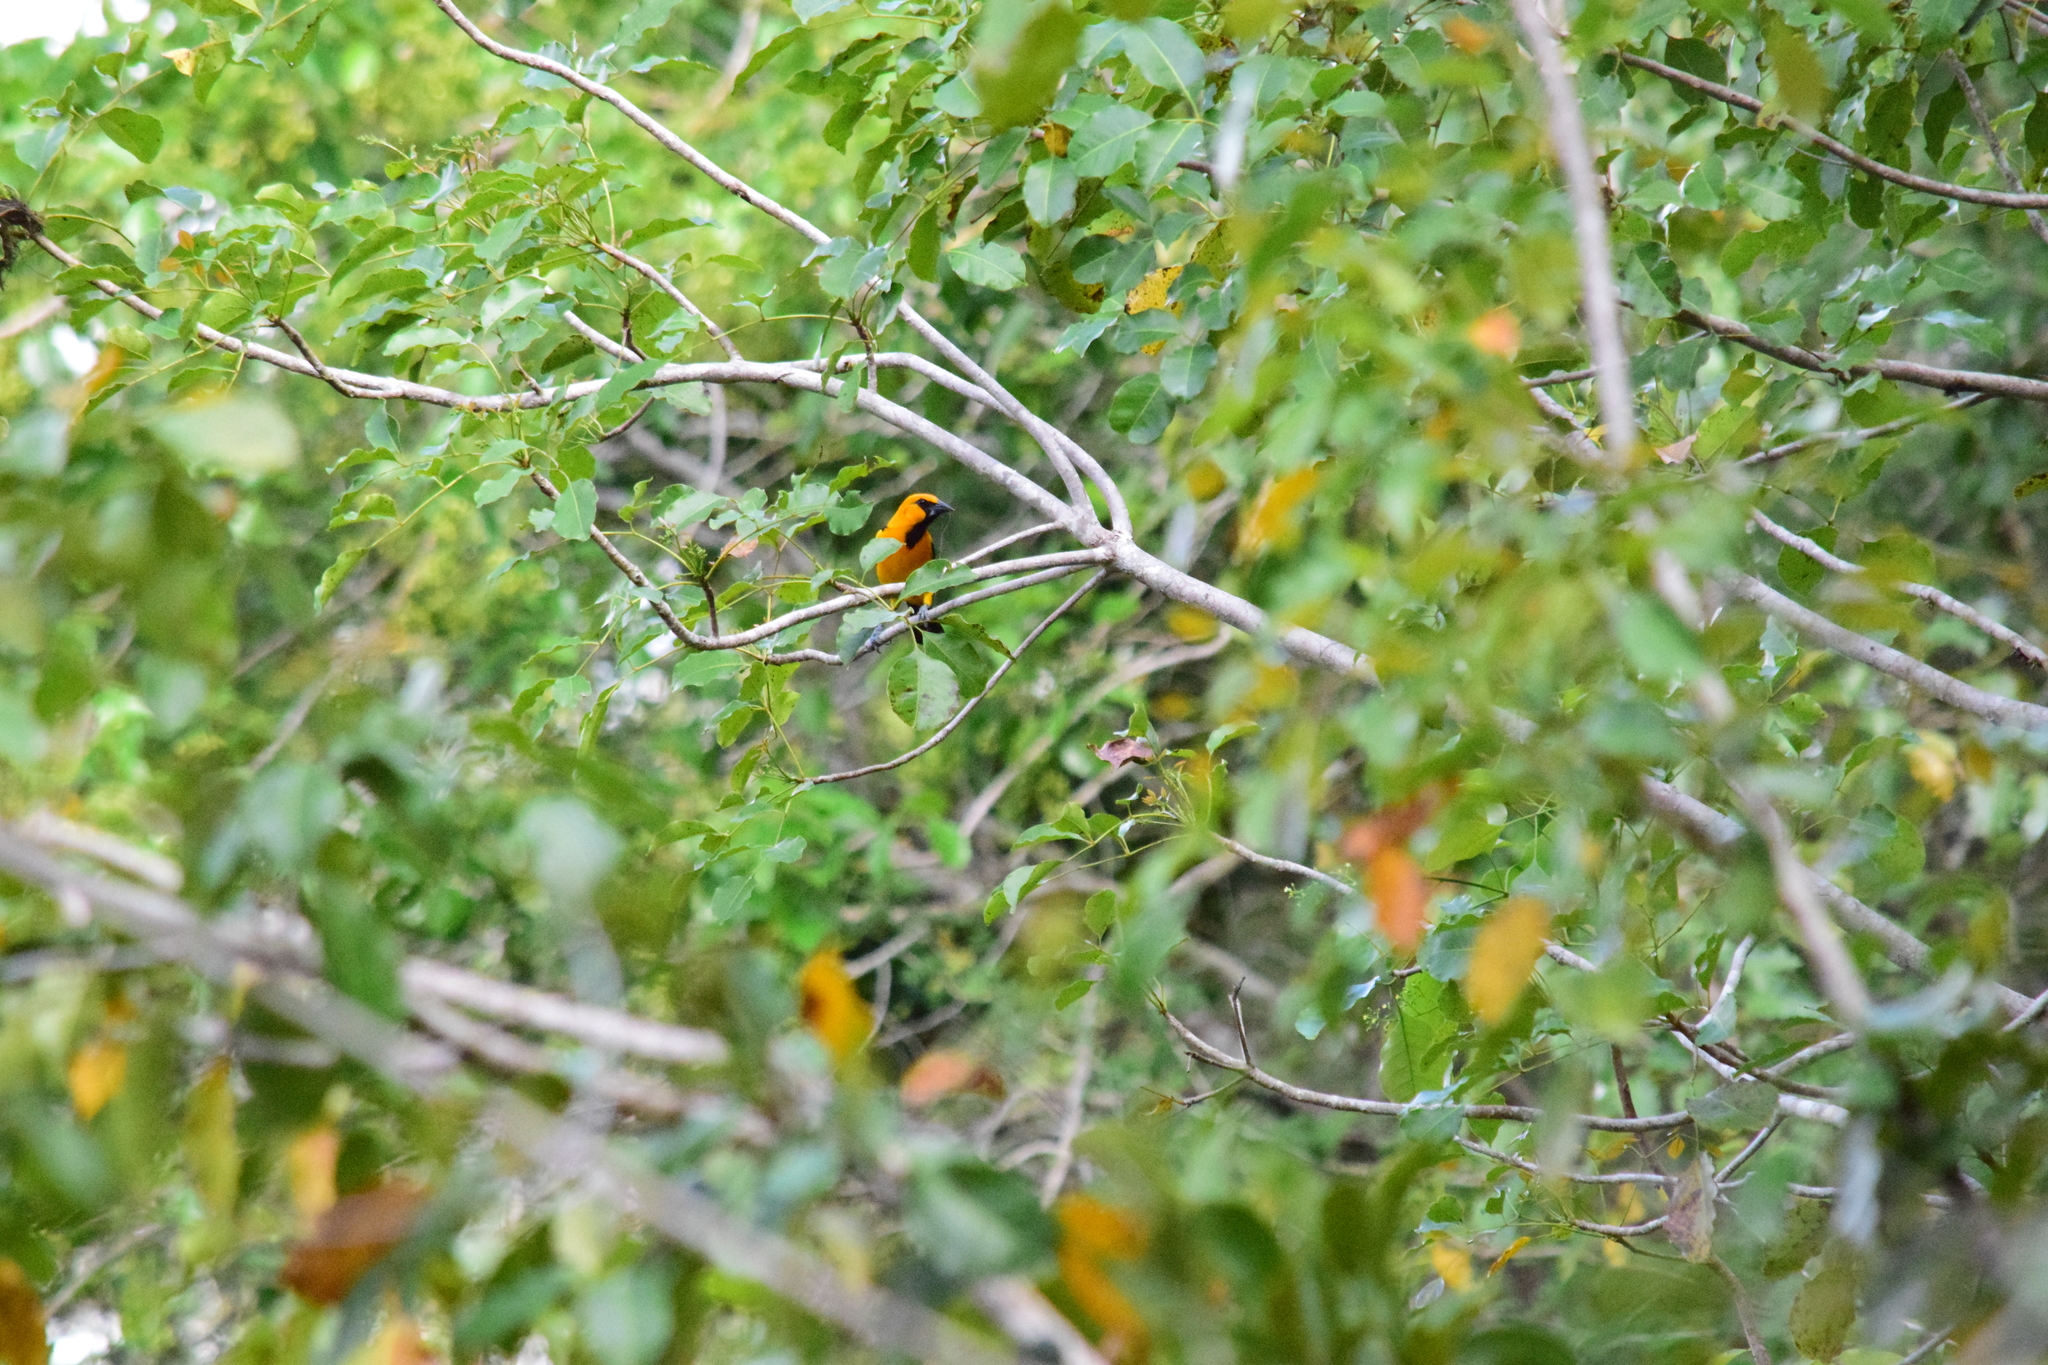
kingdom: Animalia
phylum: Chordata
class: Aves
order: Passeriformes
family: Icteridae
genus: Icterus
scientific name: Icterus gularis
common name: Altamira oriole
